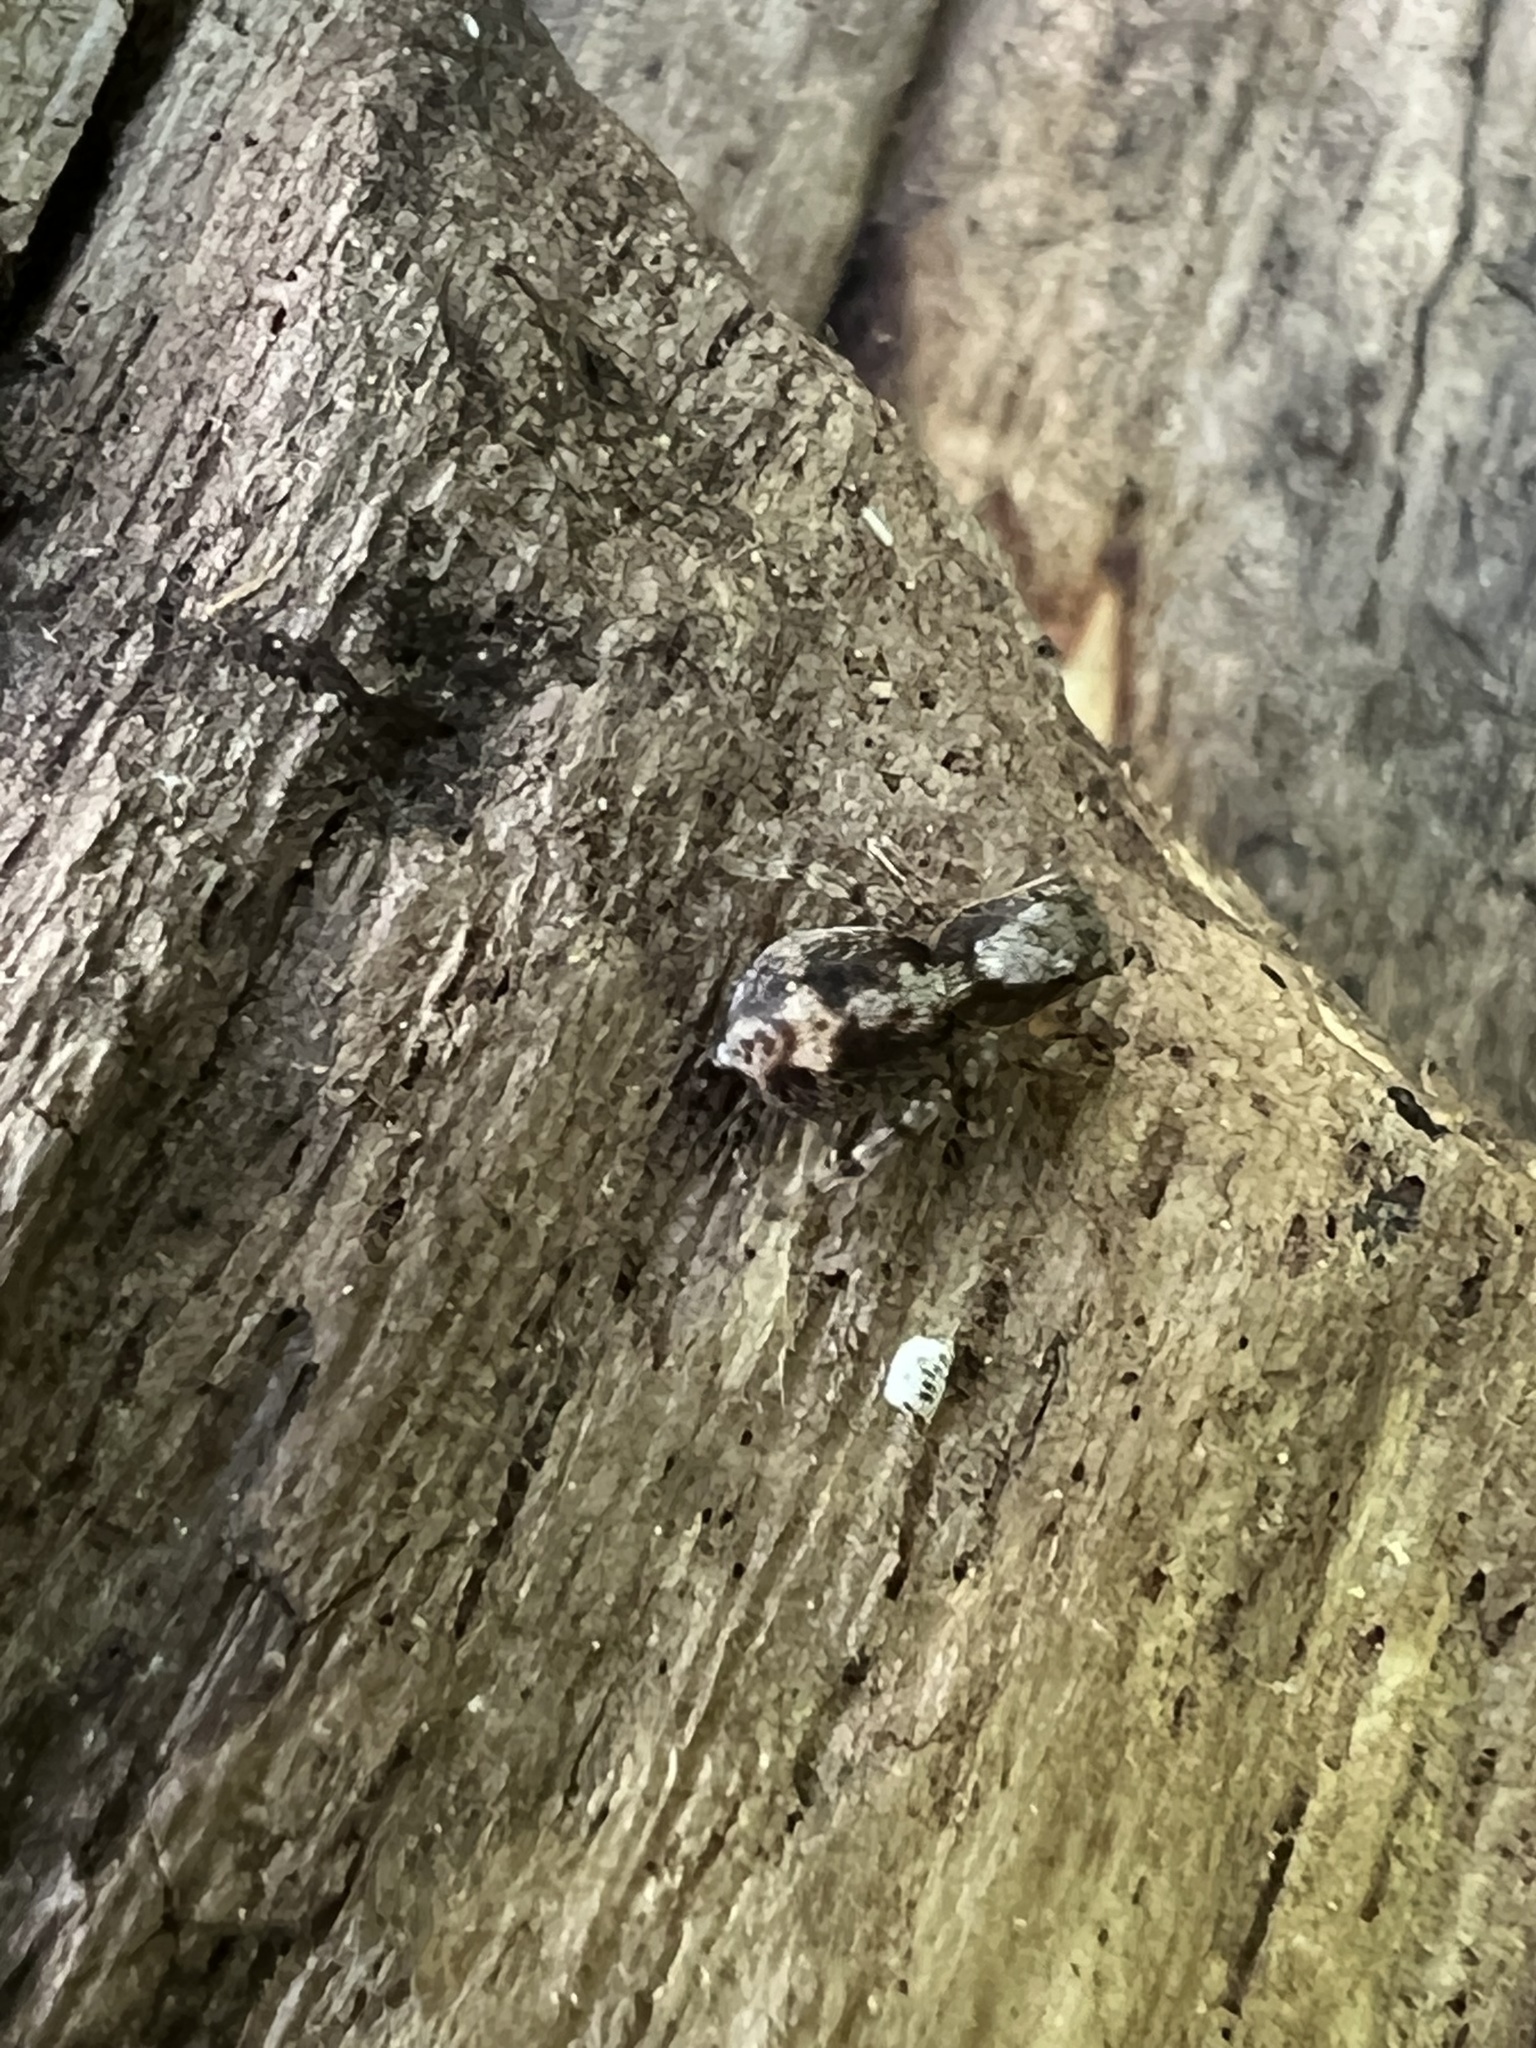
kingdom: Animalia
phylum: Arthropoda
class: Arachnida
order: Araneae
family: Salticidae
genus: Naphrys
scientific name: Naphrys pulex
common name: Flea jumping spider
